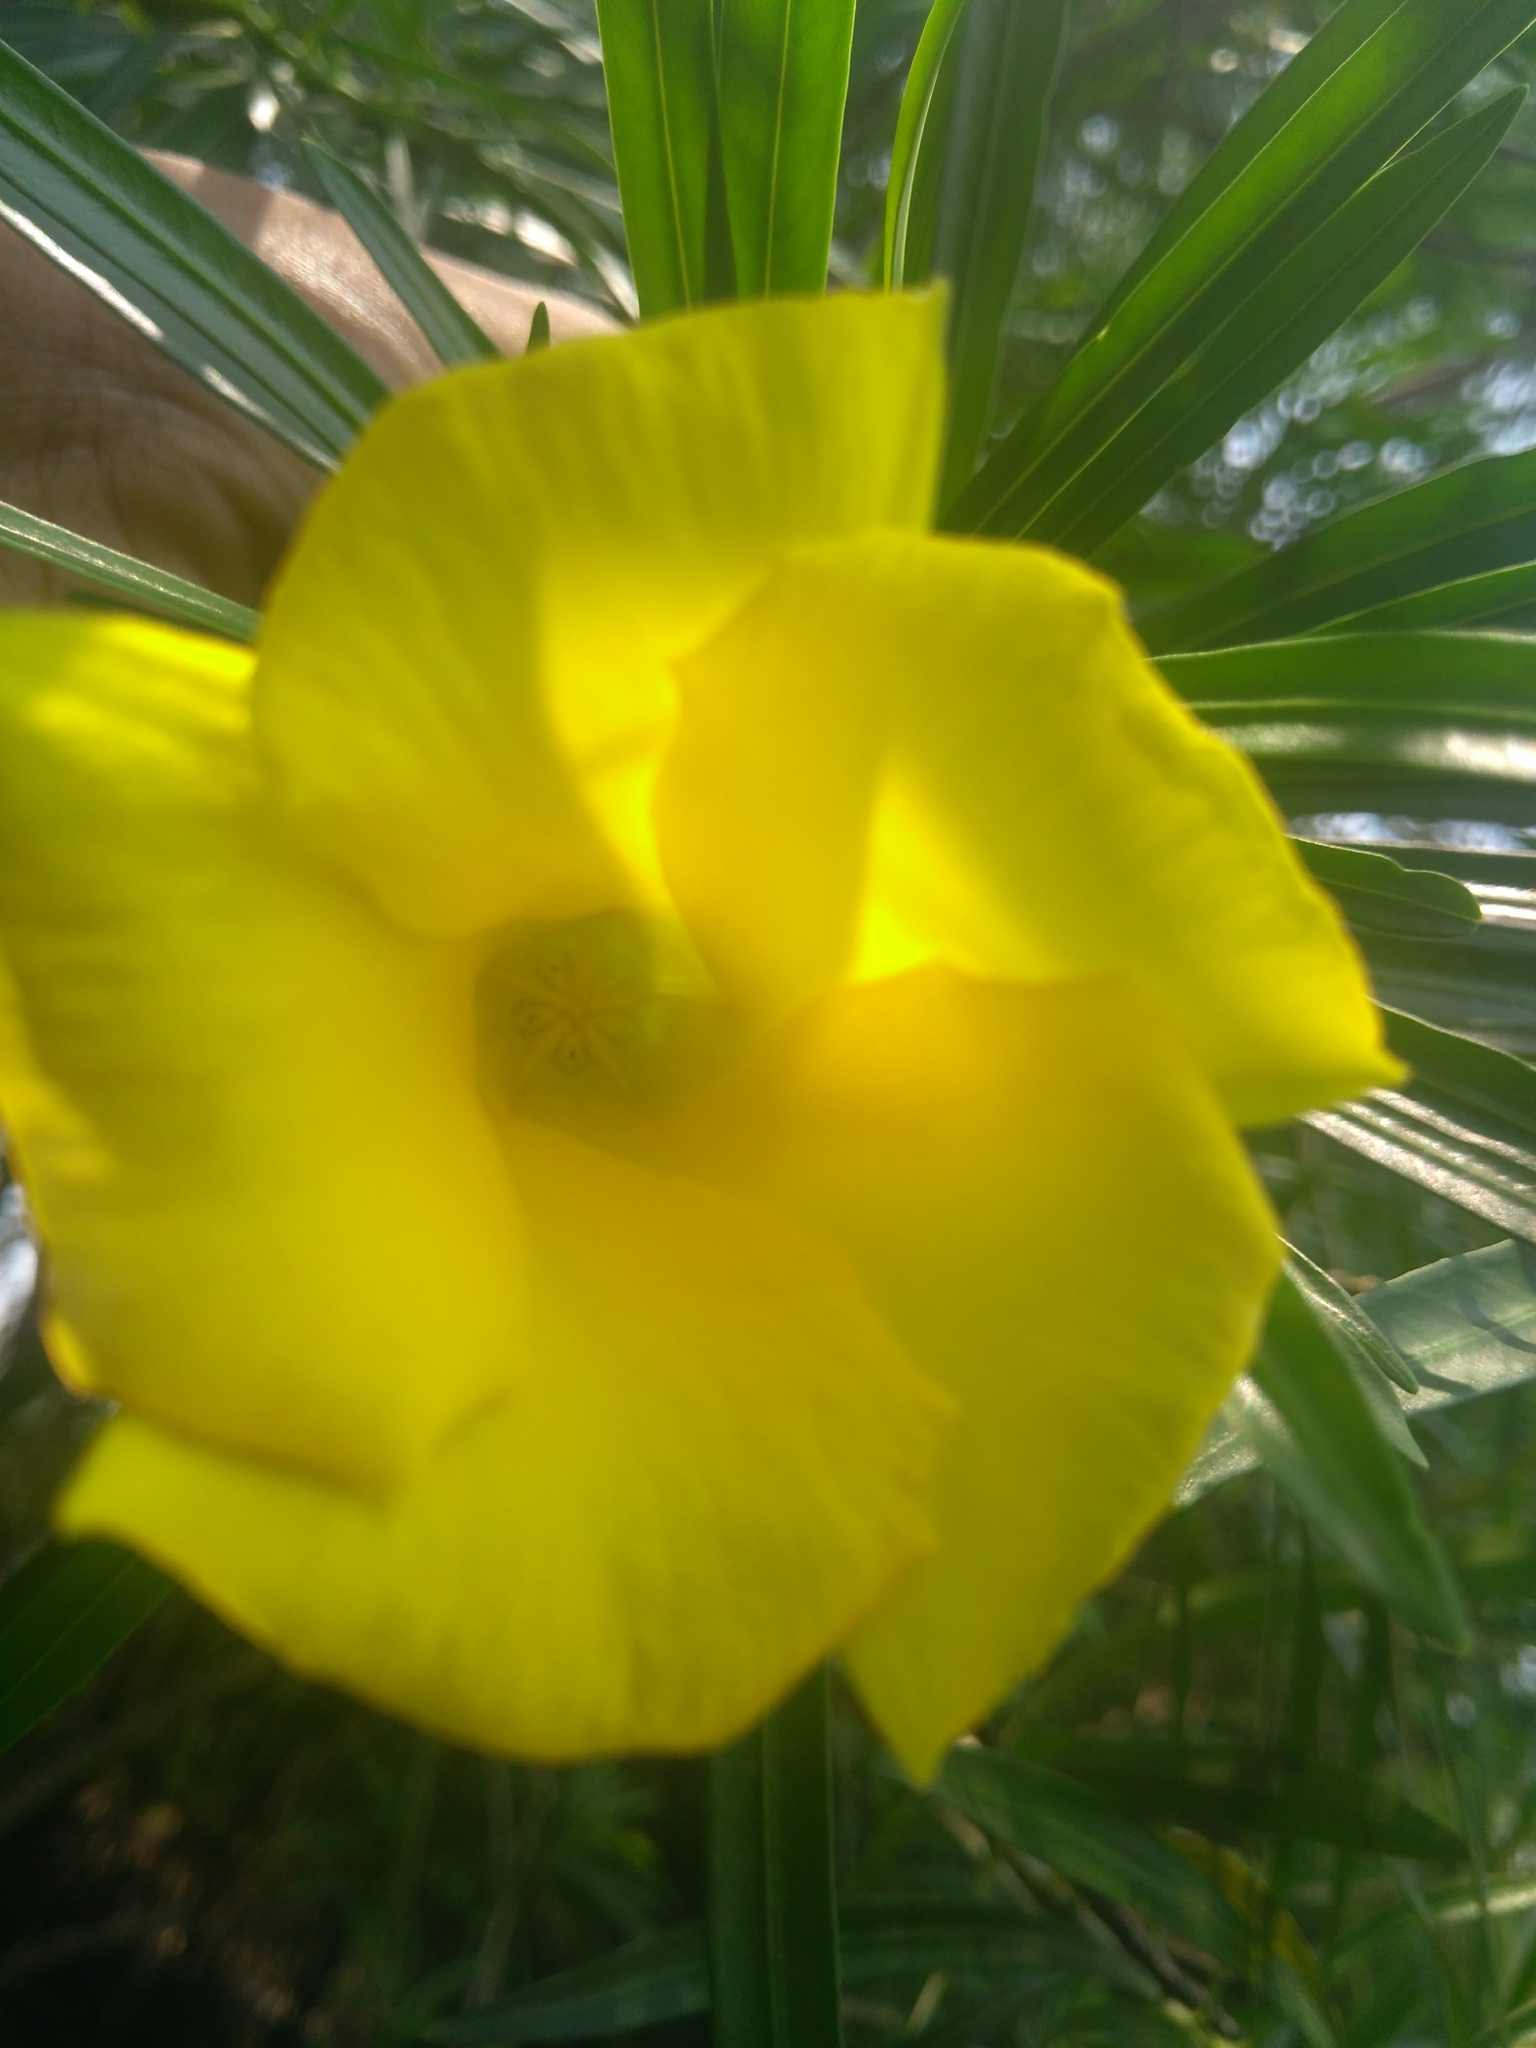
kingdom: Plantae
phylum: Tracheophyta
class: Magnoliopsida
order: Gentianales
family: Apocynaceae
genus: Cascabela
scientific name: Cascabela thevetia
